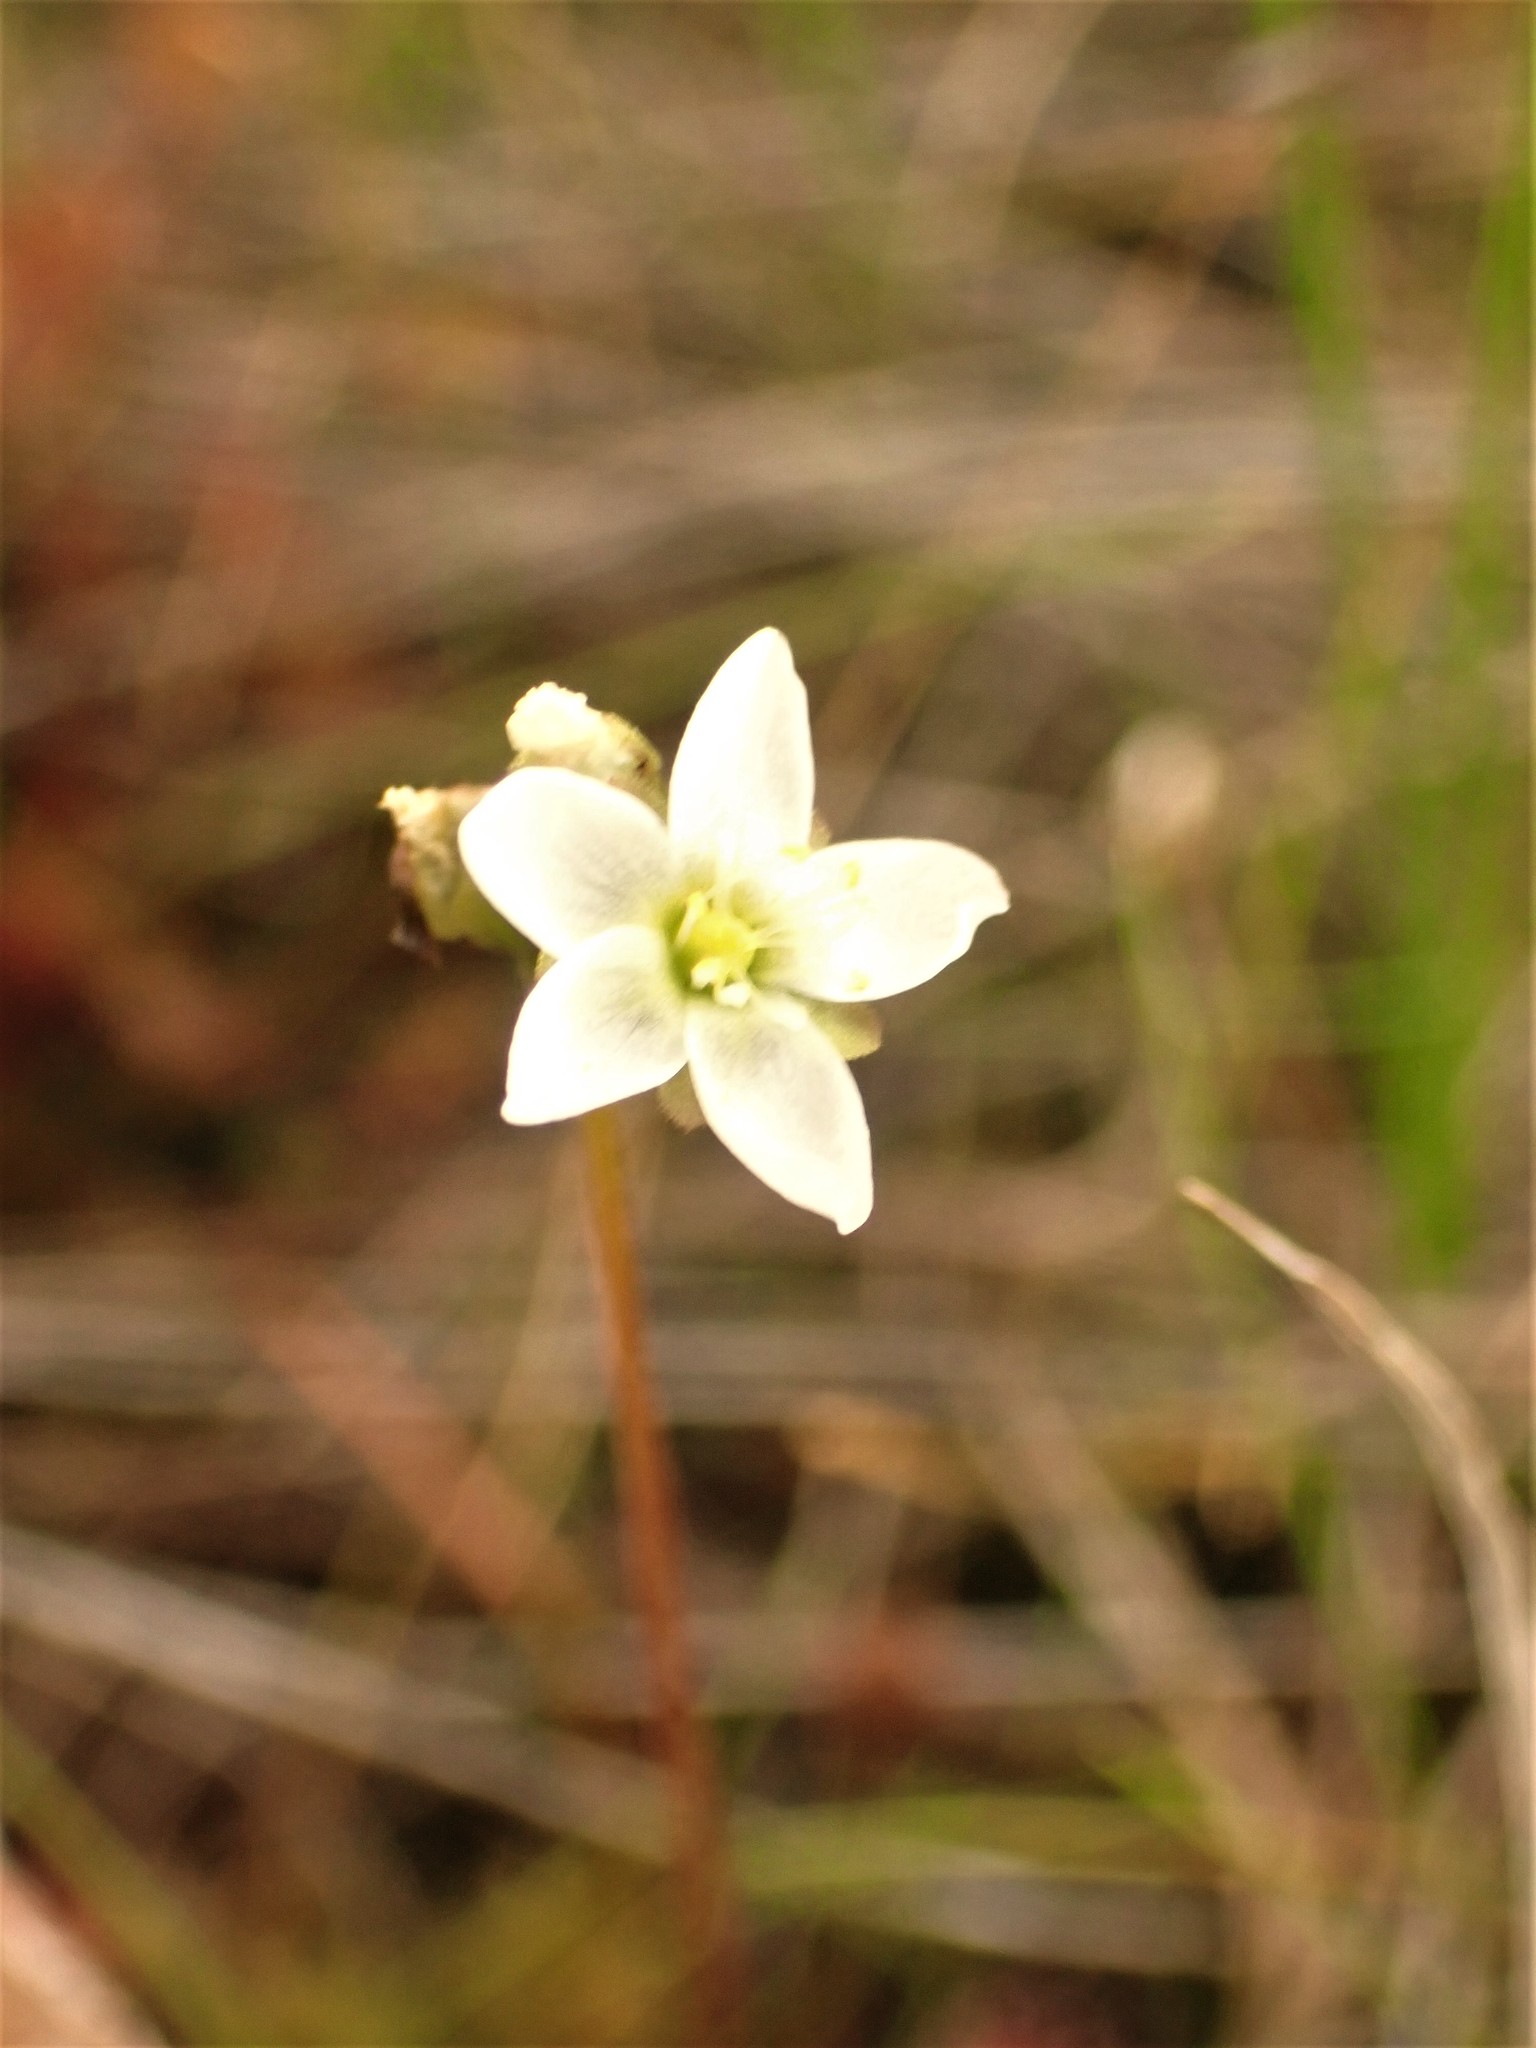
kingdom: Plantae
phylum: Tracheophyta
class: Magnoliopsida
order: Caryophyllales
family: Droseraceae
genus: Drosera
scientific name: Drosera anglica
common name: Great sundew
